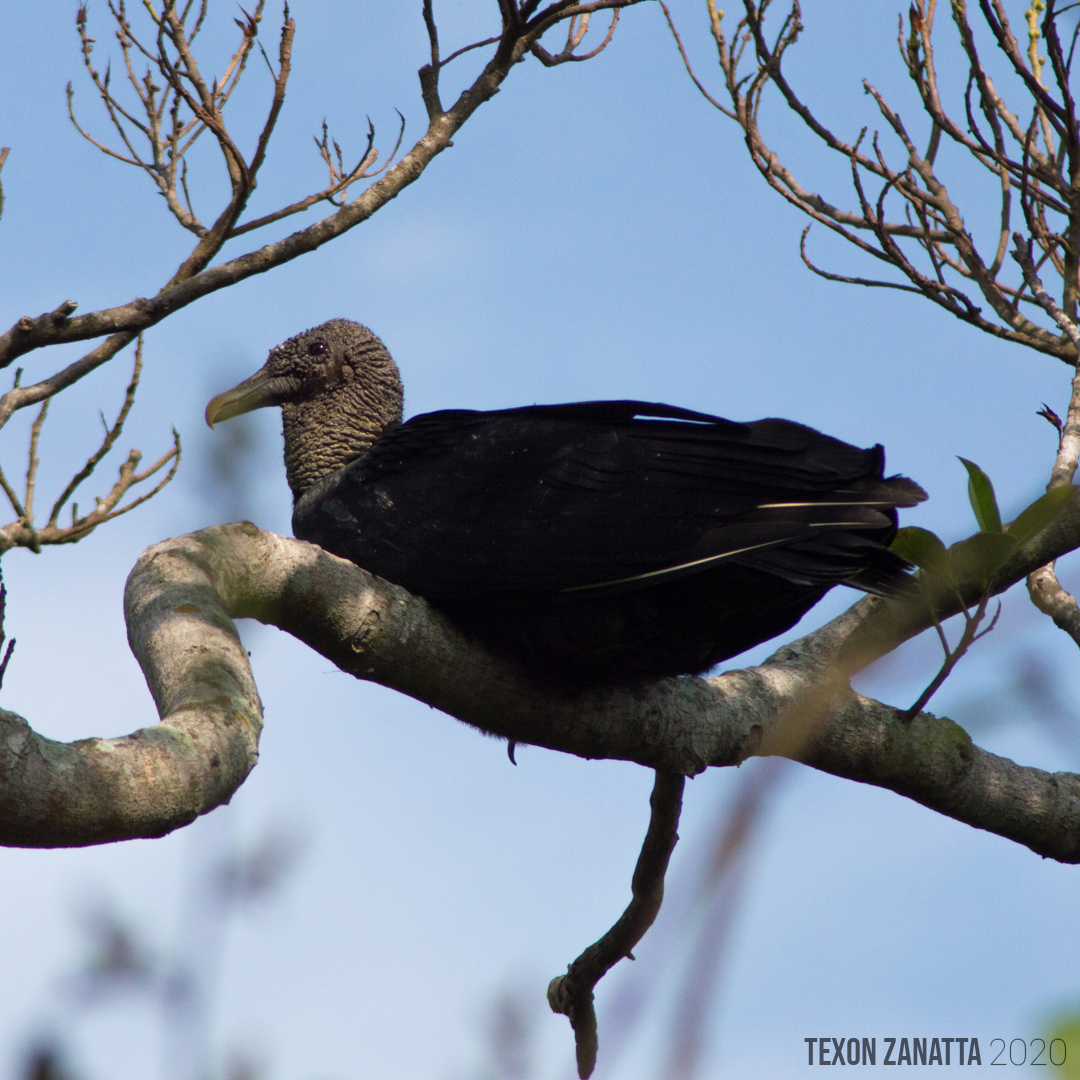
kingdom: Animalia
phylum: Chordata
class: Aves
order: Accipitriformes
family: Cathartidae
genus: Coragyps
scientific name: Coragyps atratus
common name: Black vulture
